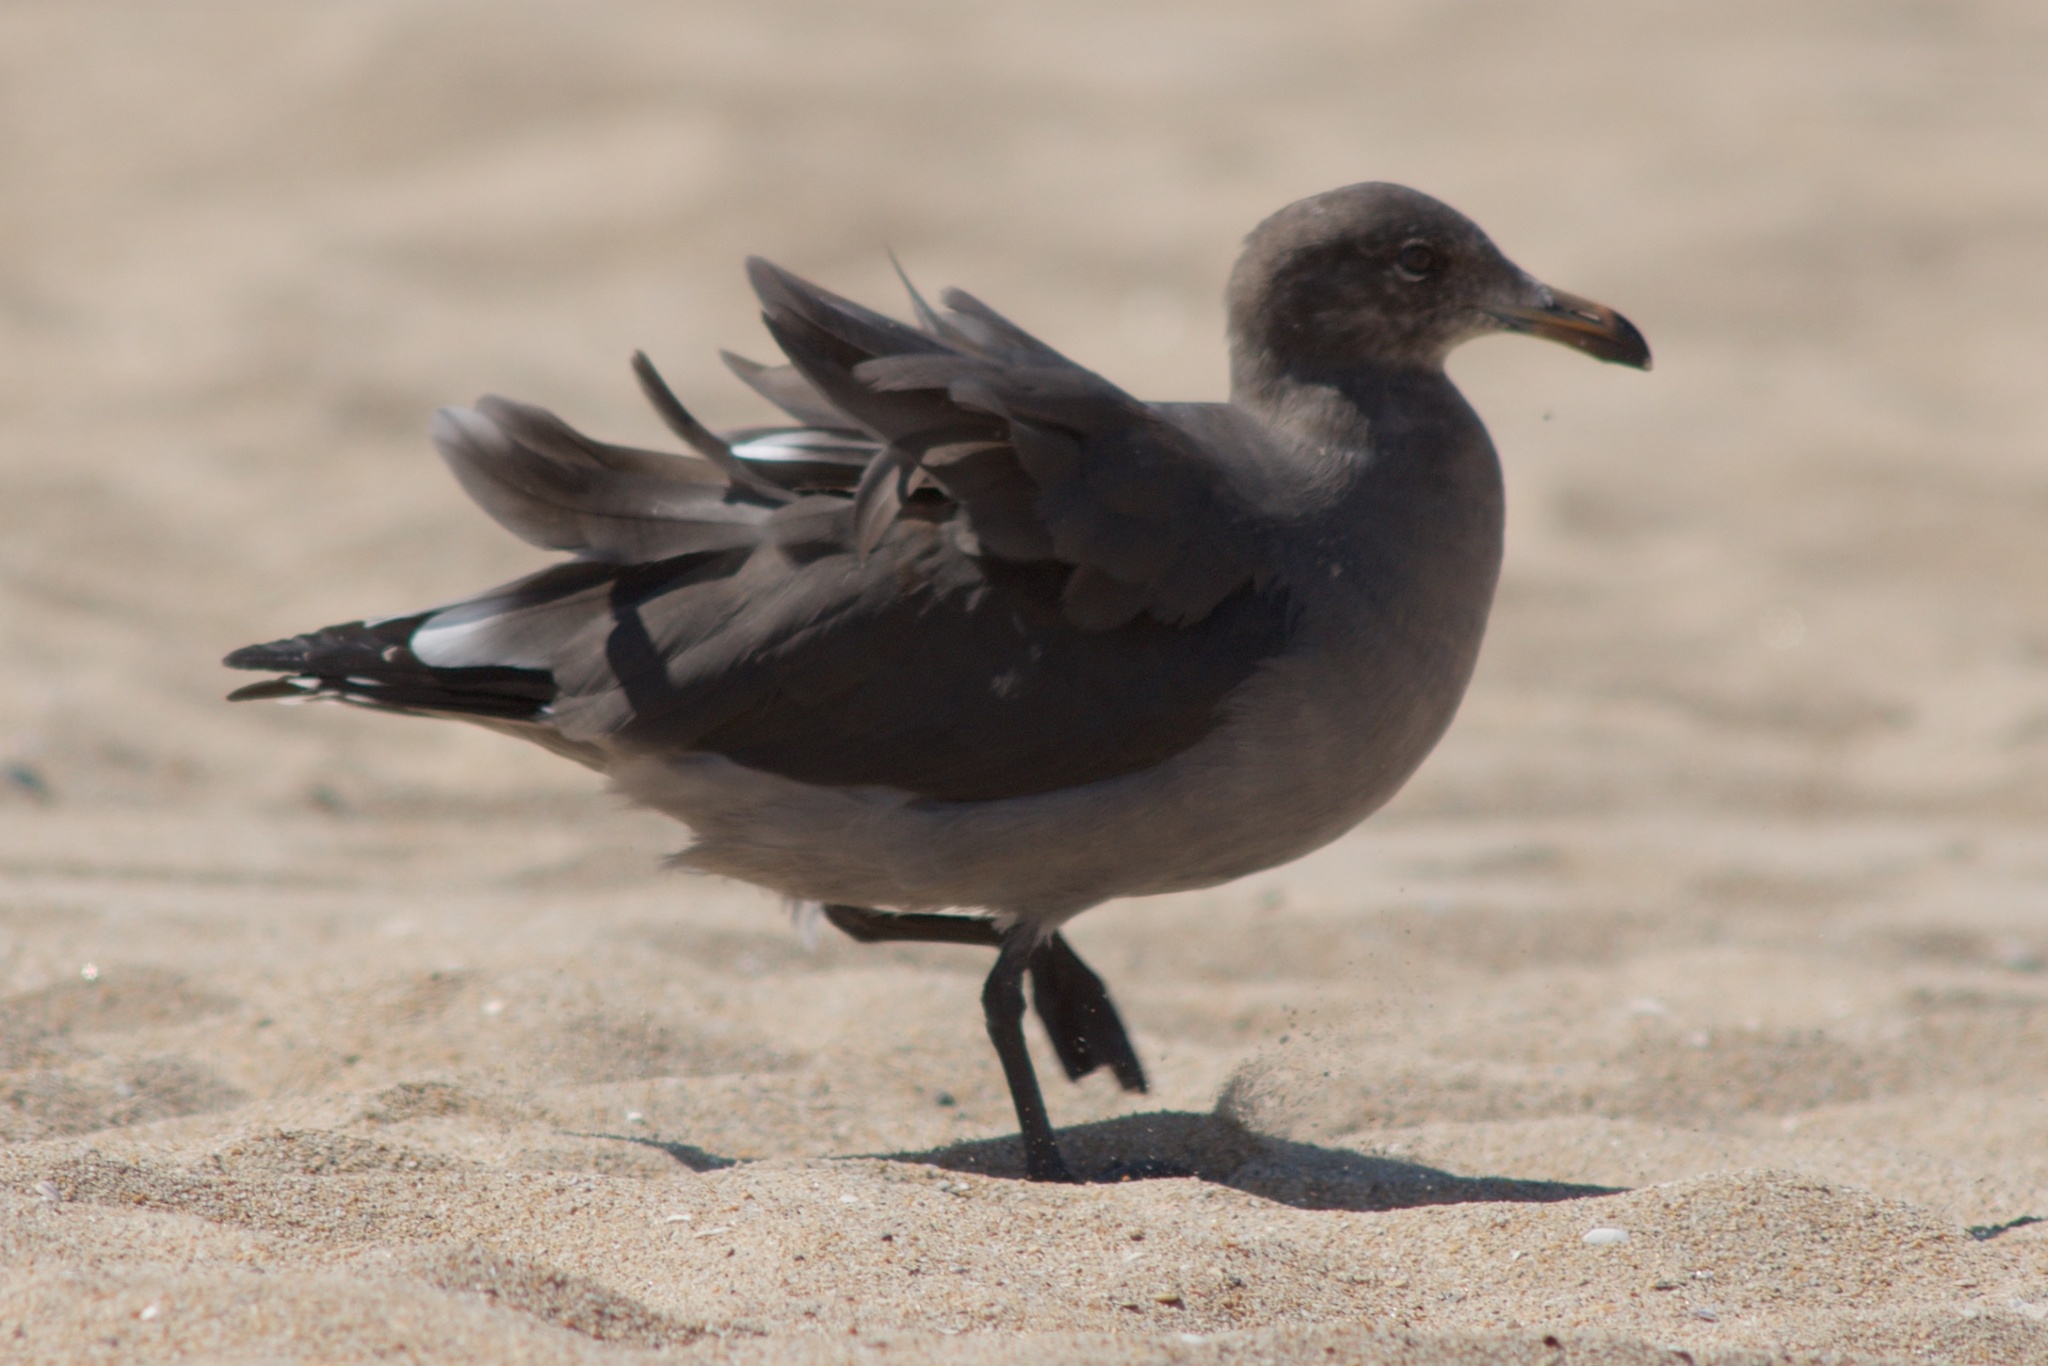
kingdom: Animalia
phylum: Chordata
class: Aves
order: Charadriiformes
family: Laridae
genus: Larus
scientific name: Larus heermanni
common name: Heermann's gull
